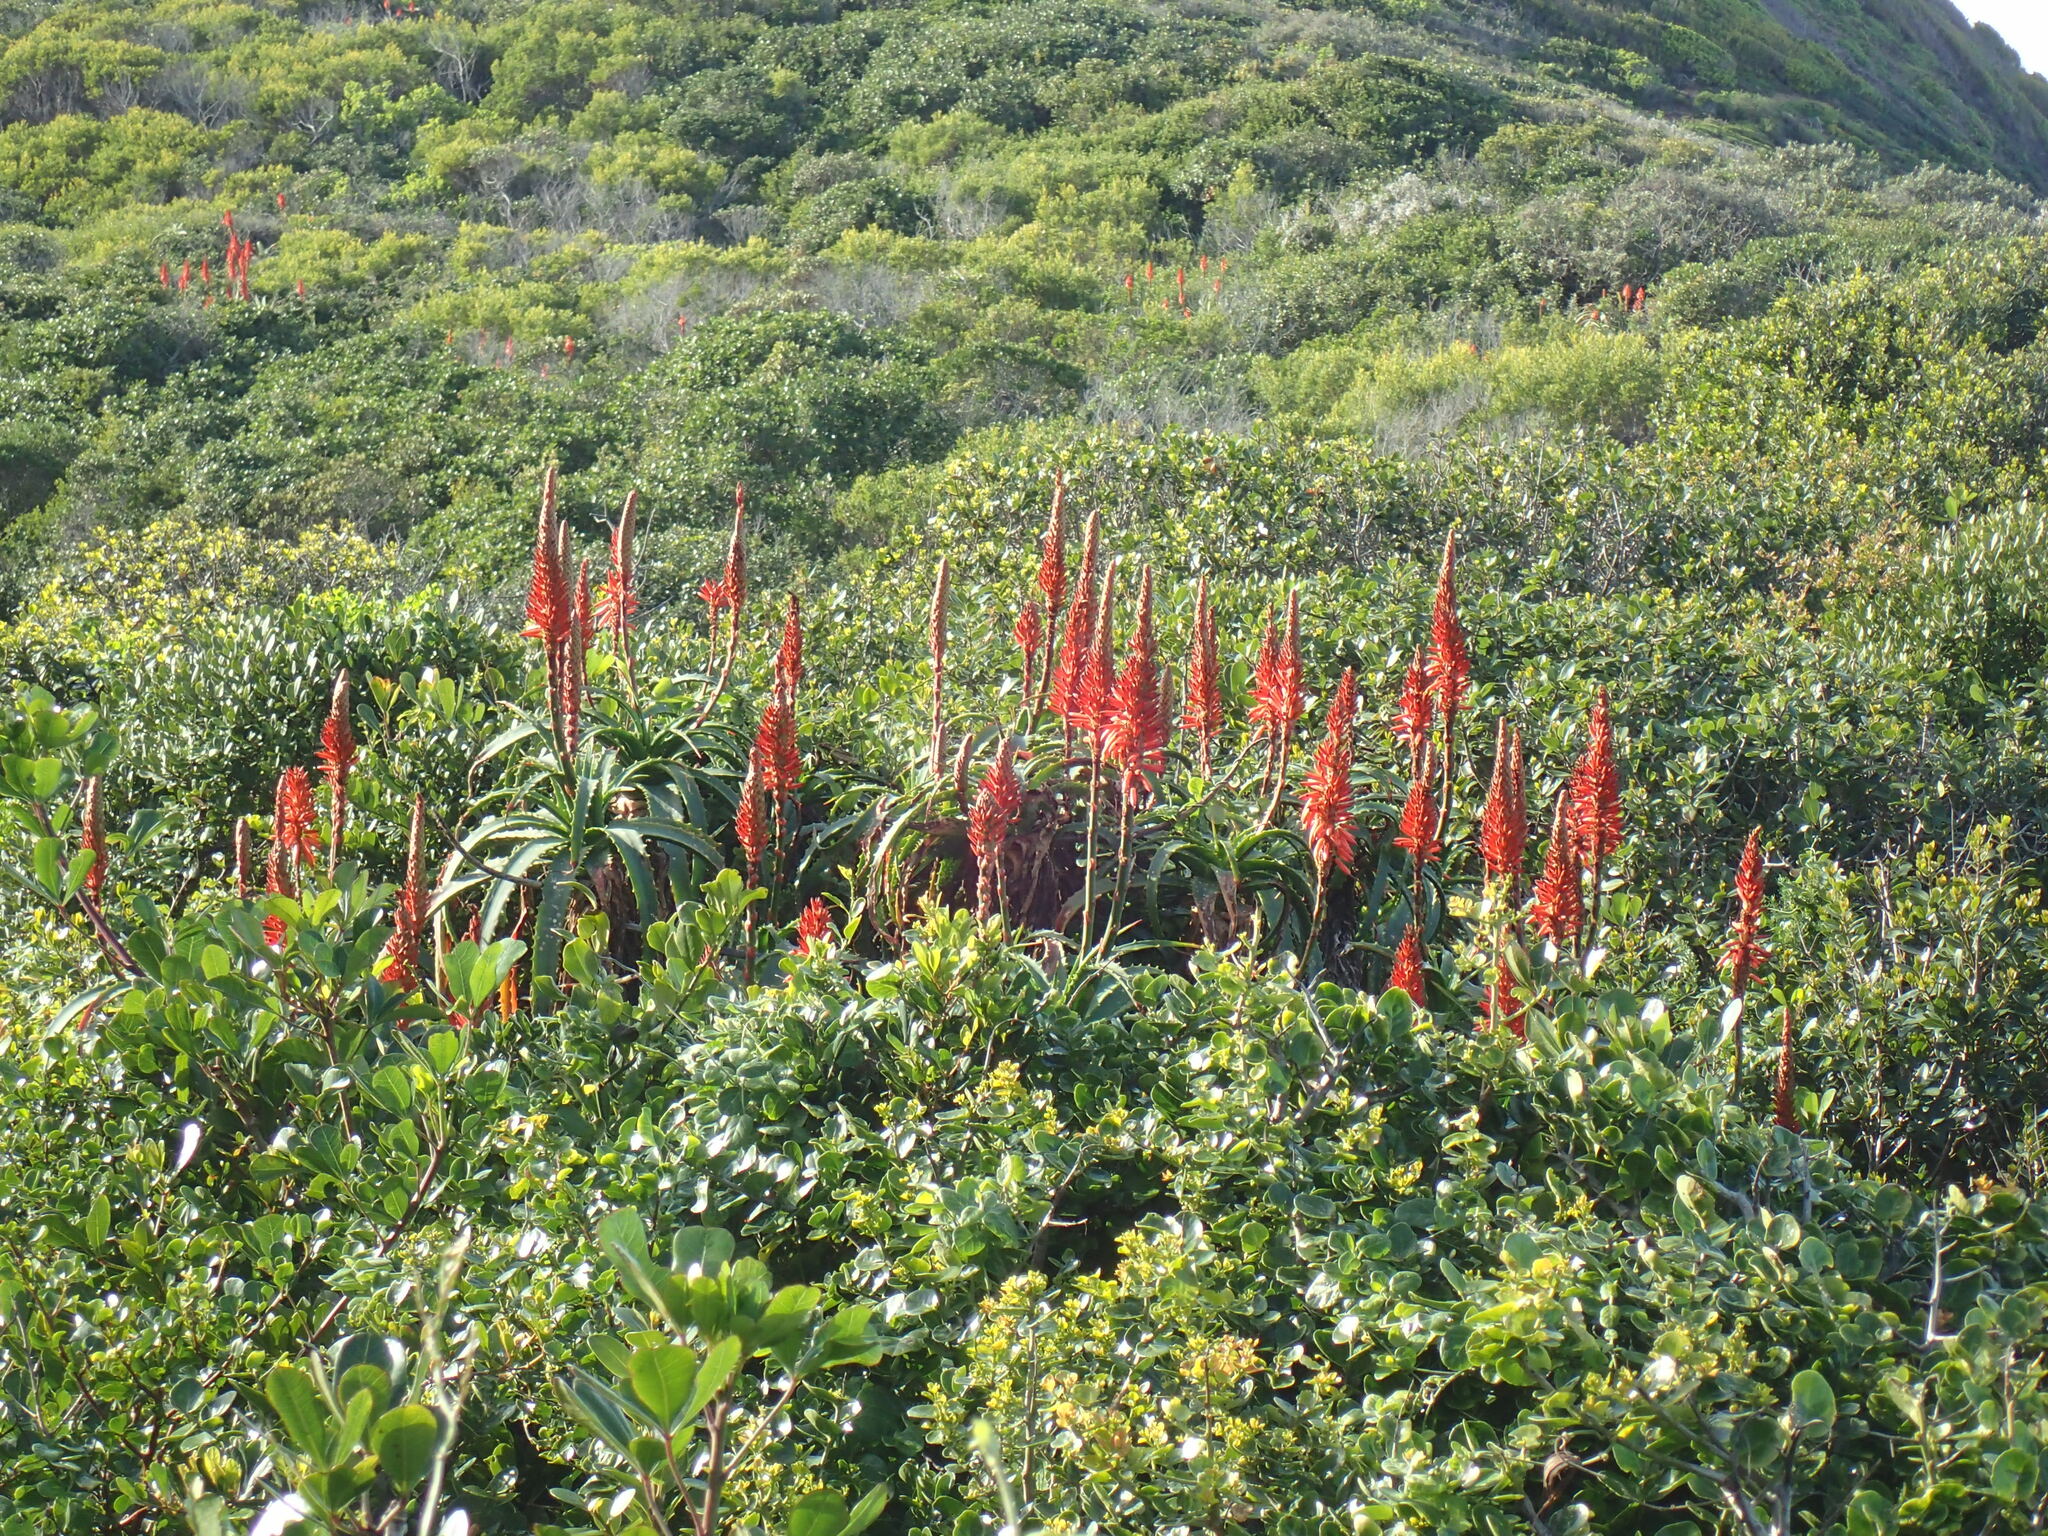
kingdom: Plantae
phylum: Tracheophyta
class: Liliopsida
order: Asparagales
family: Asphodelaceae
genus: Aloe
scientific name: Aloe arborescens
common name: Candelabra aloe
